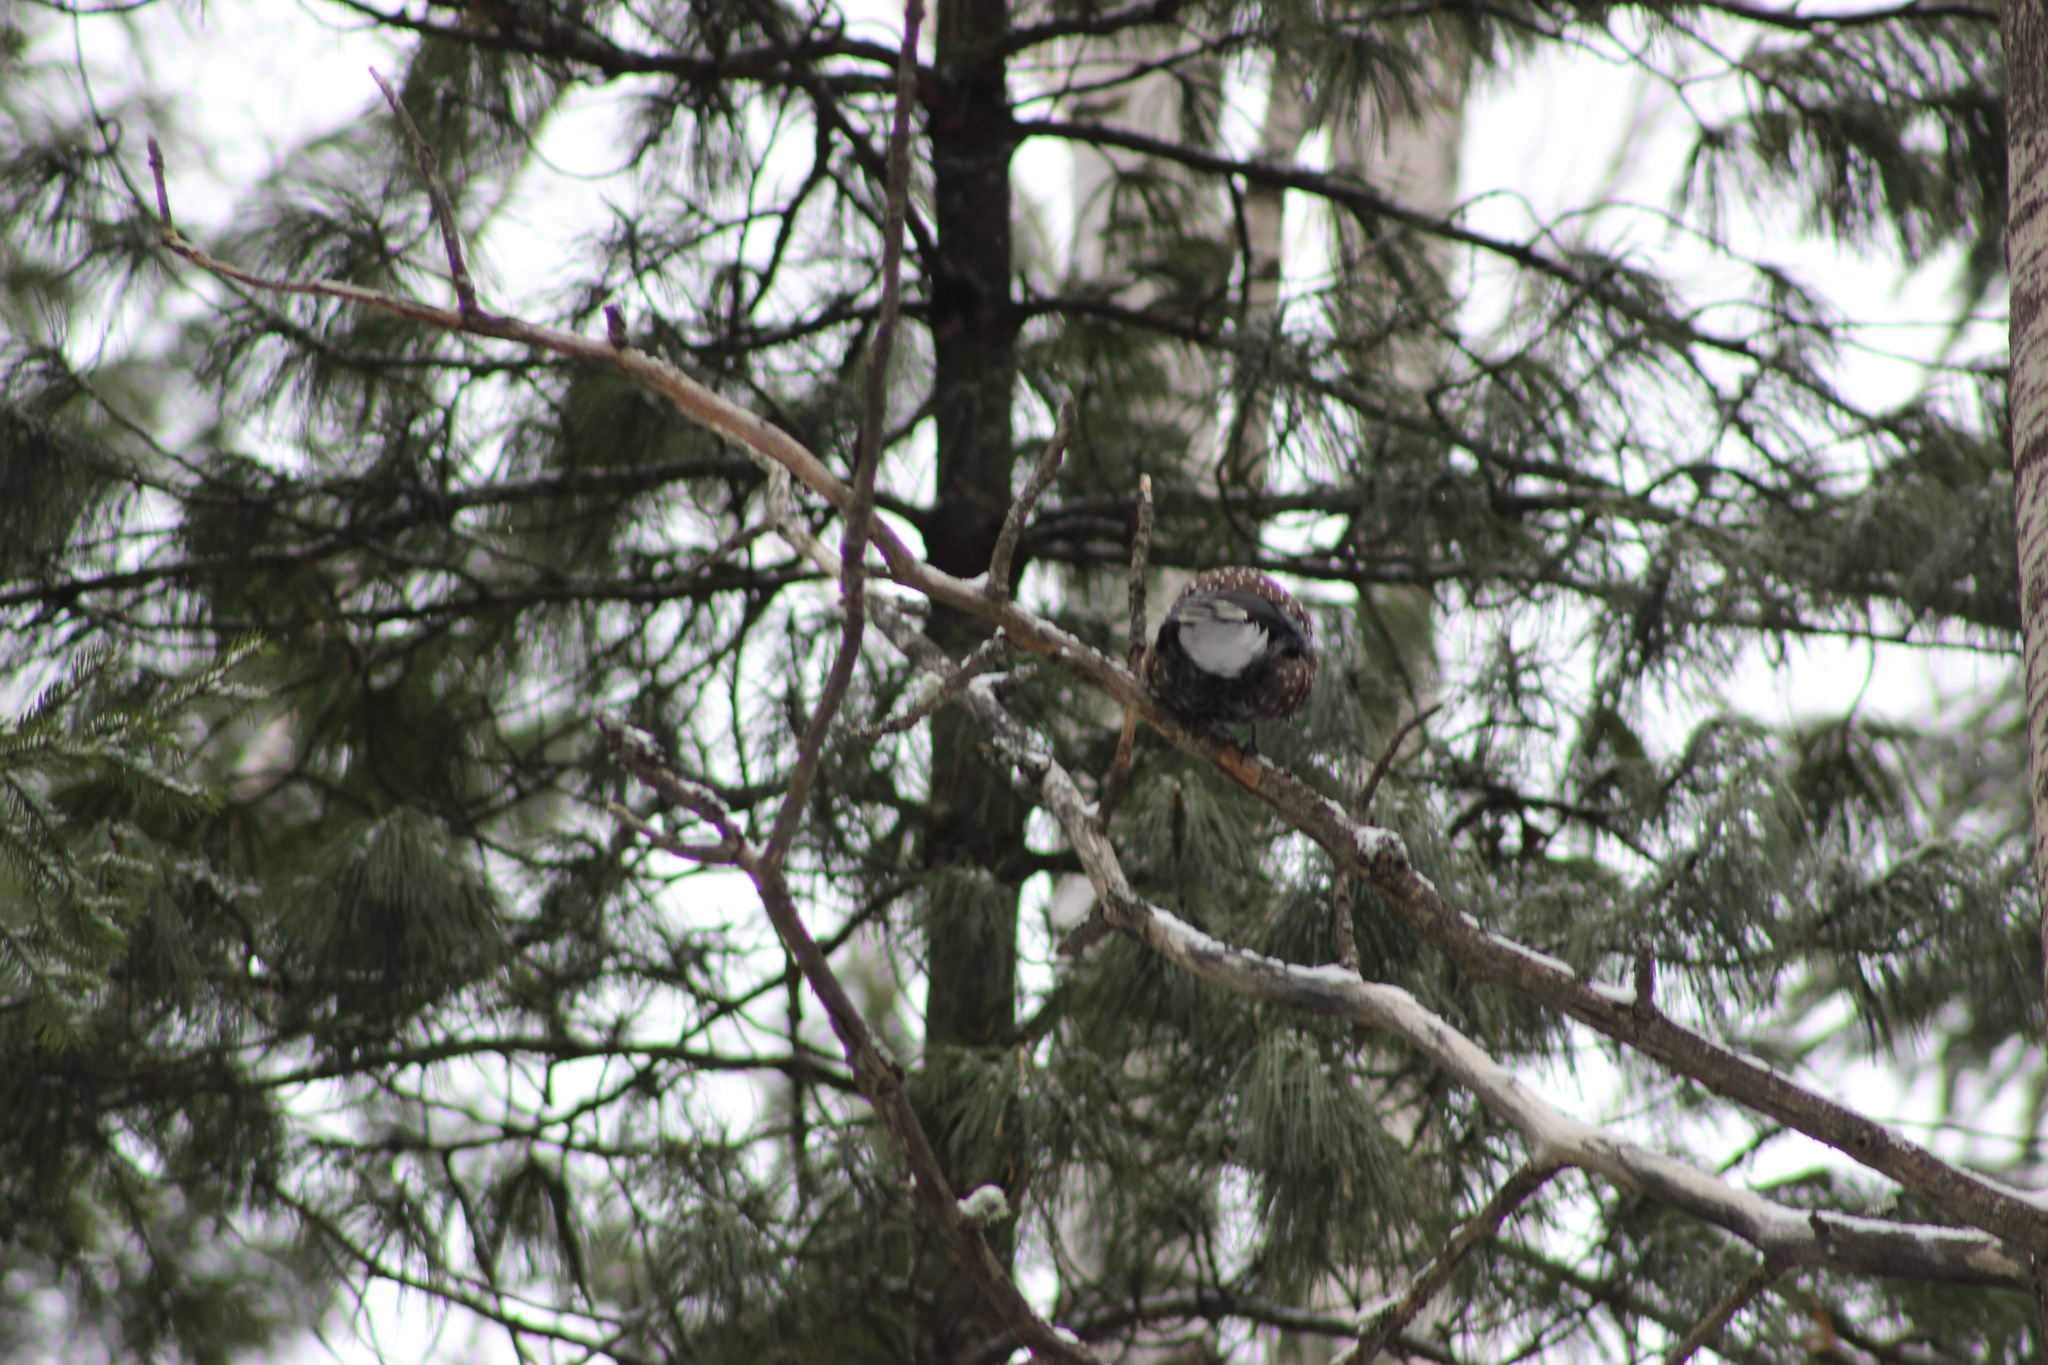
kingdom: Animalia
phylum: Chordata
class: Aves
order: Passeriformes
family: Corvidae
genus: Nucifraga
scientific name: Nucifraga caryocatactes
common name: Spotted nutcracker
